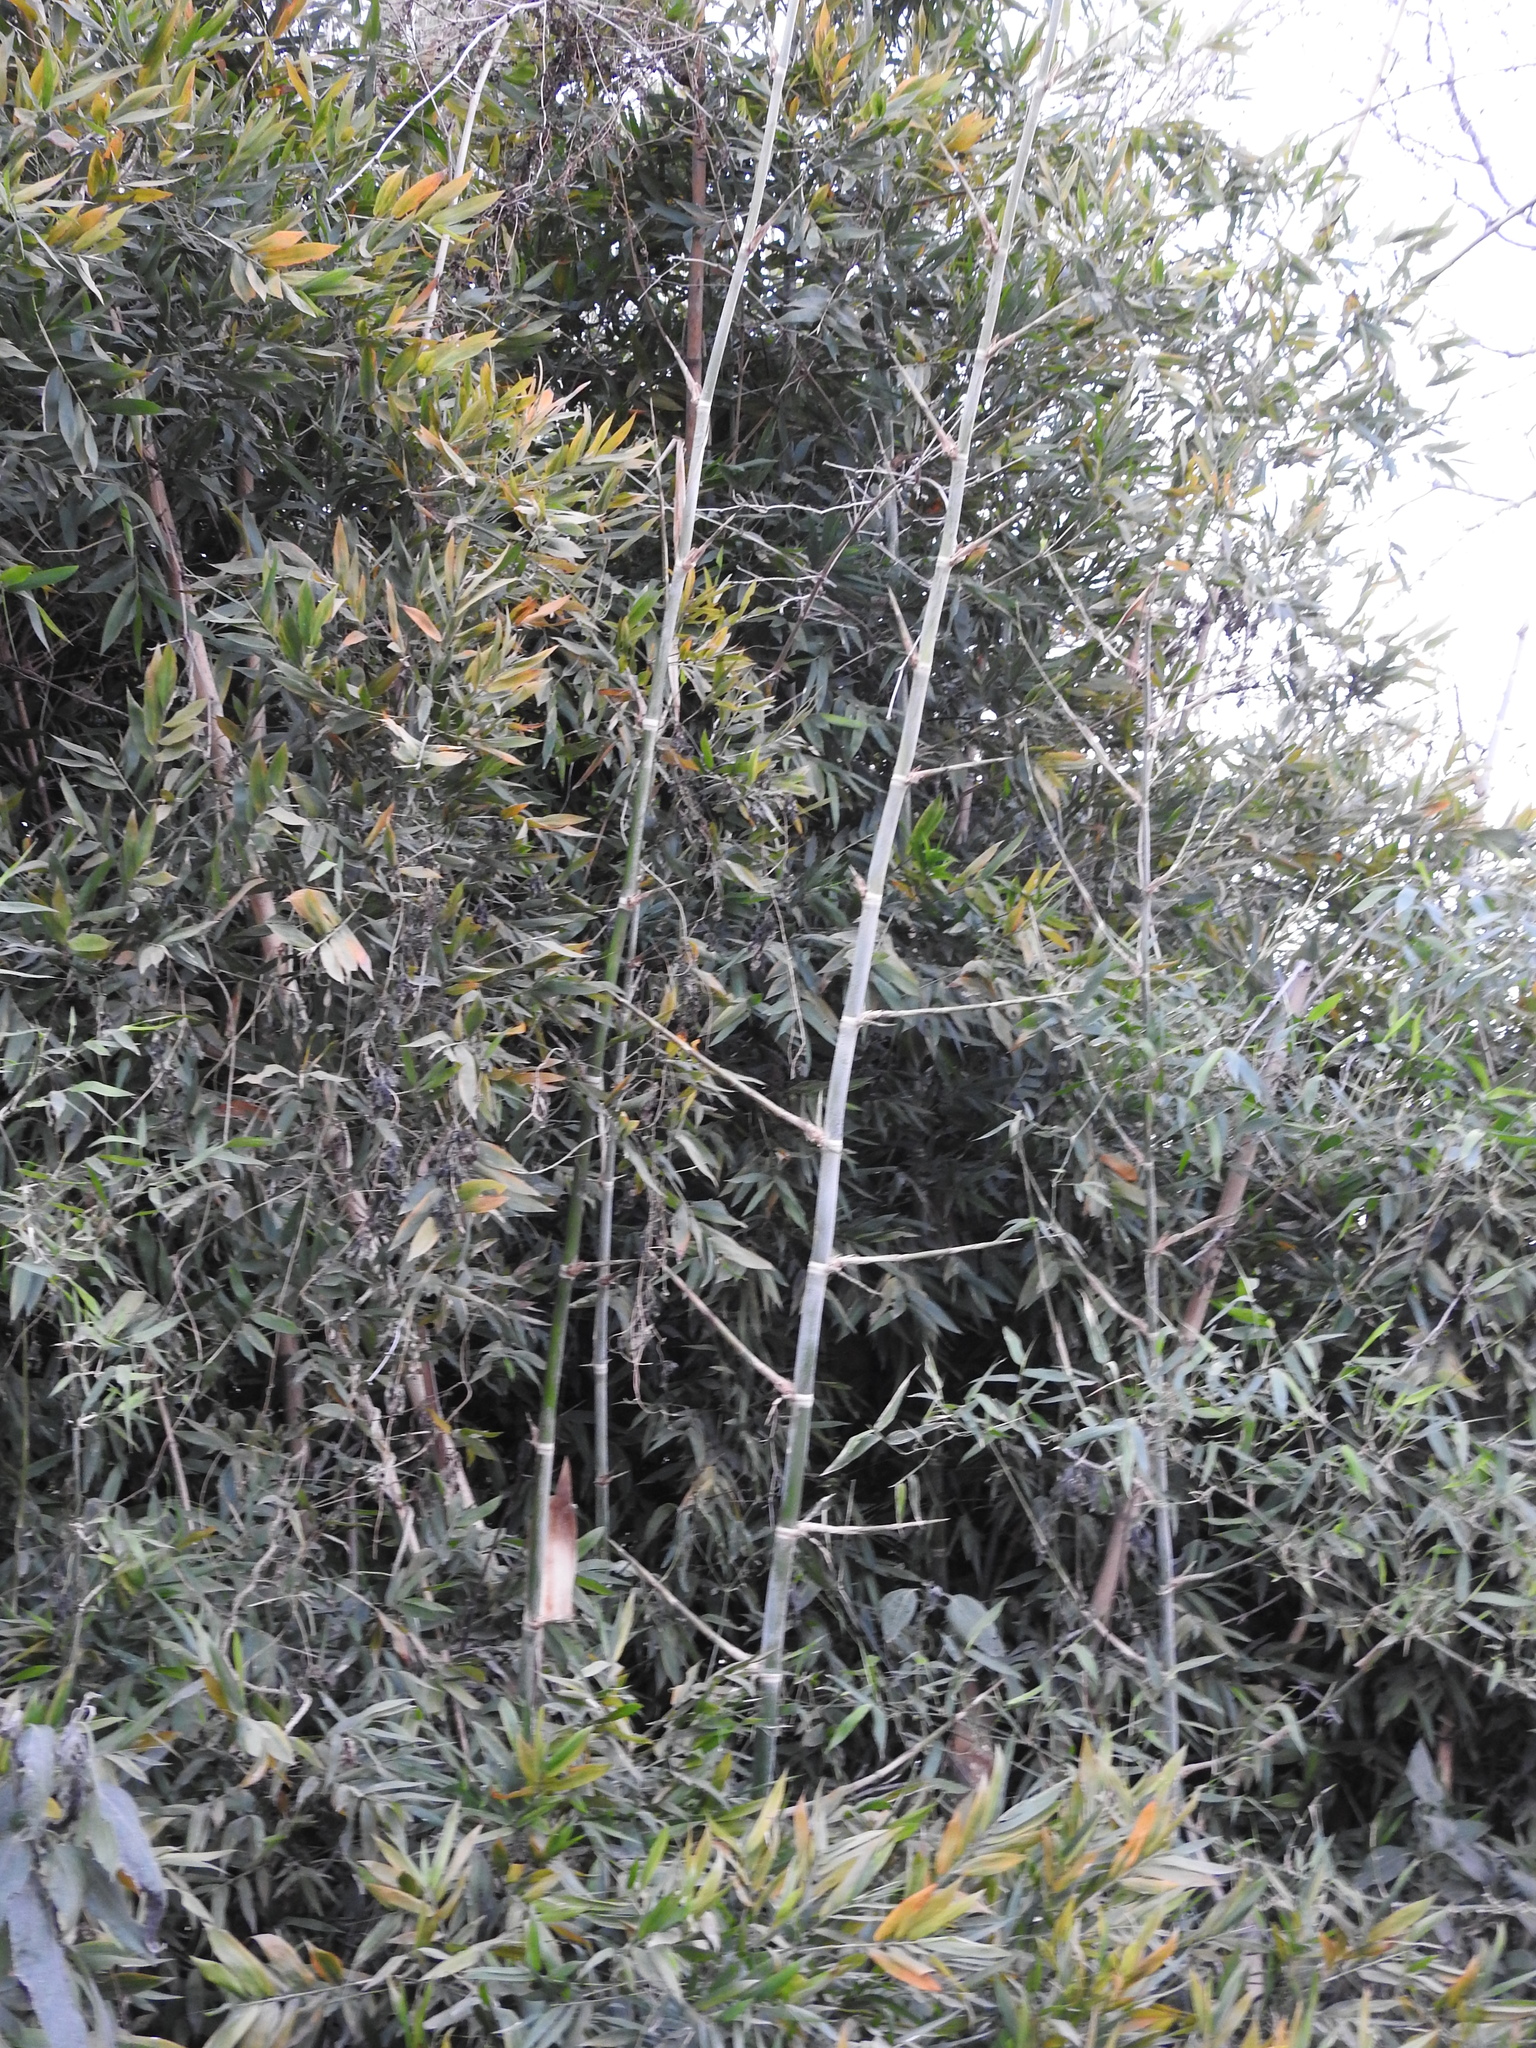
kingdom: Plantae
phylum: Tracheophyta
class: Liliopsida
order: Poales
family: Poaceae
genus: Guadua
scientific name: Guadua paraguayana
